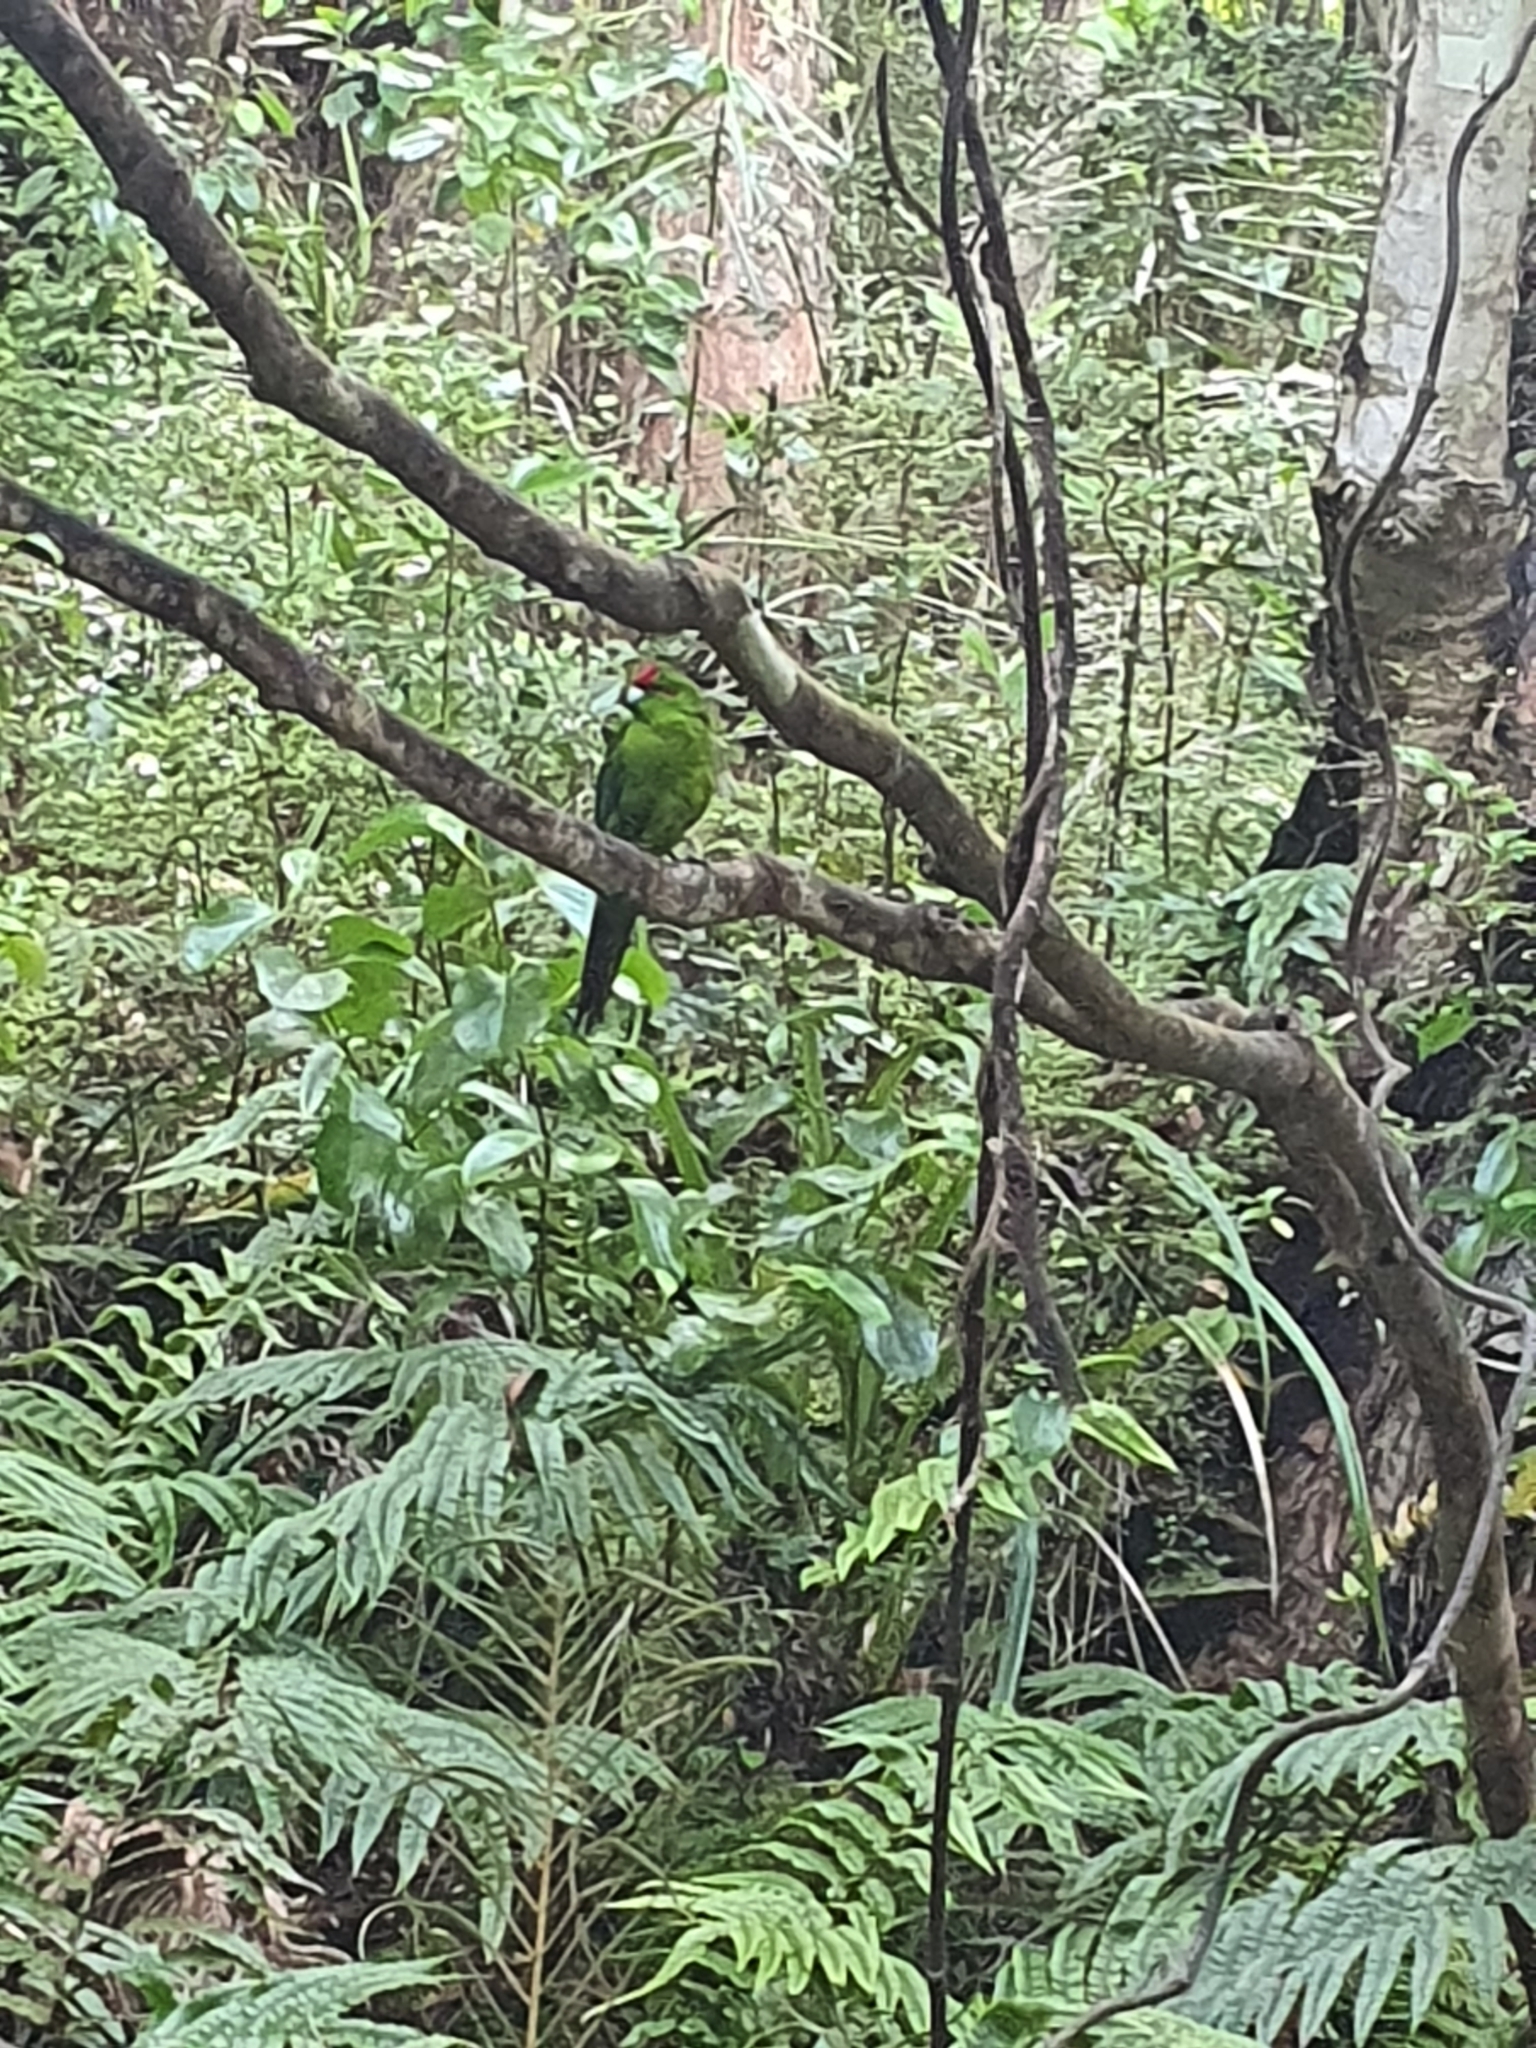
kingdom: Animalia
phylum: Chordata
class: Aves
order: Psittaciformes
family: Psittacidae
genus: Cyanoramphus
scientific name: Cyanoramphus novaezelandiae
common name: Red-fronted parakeet
